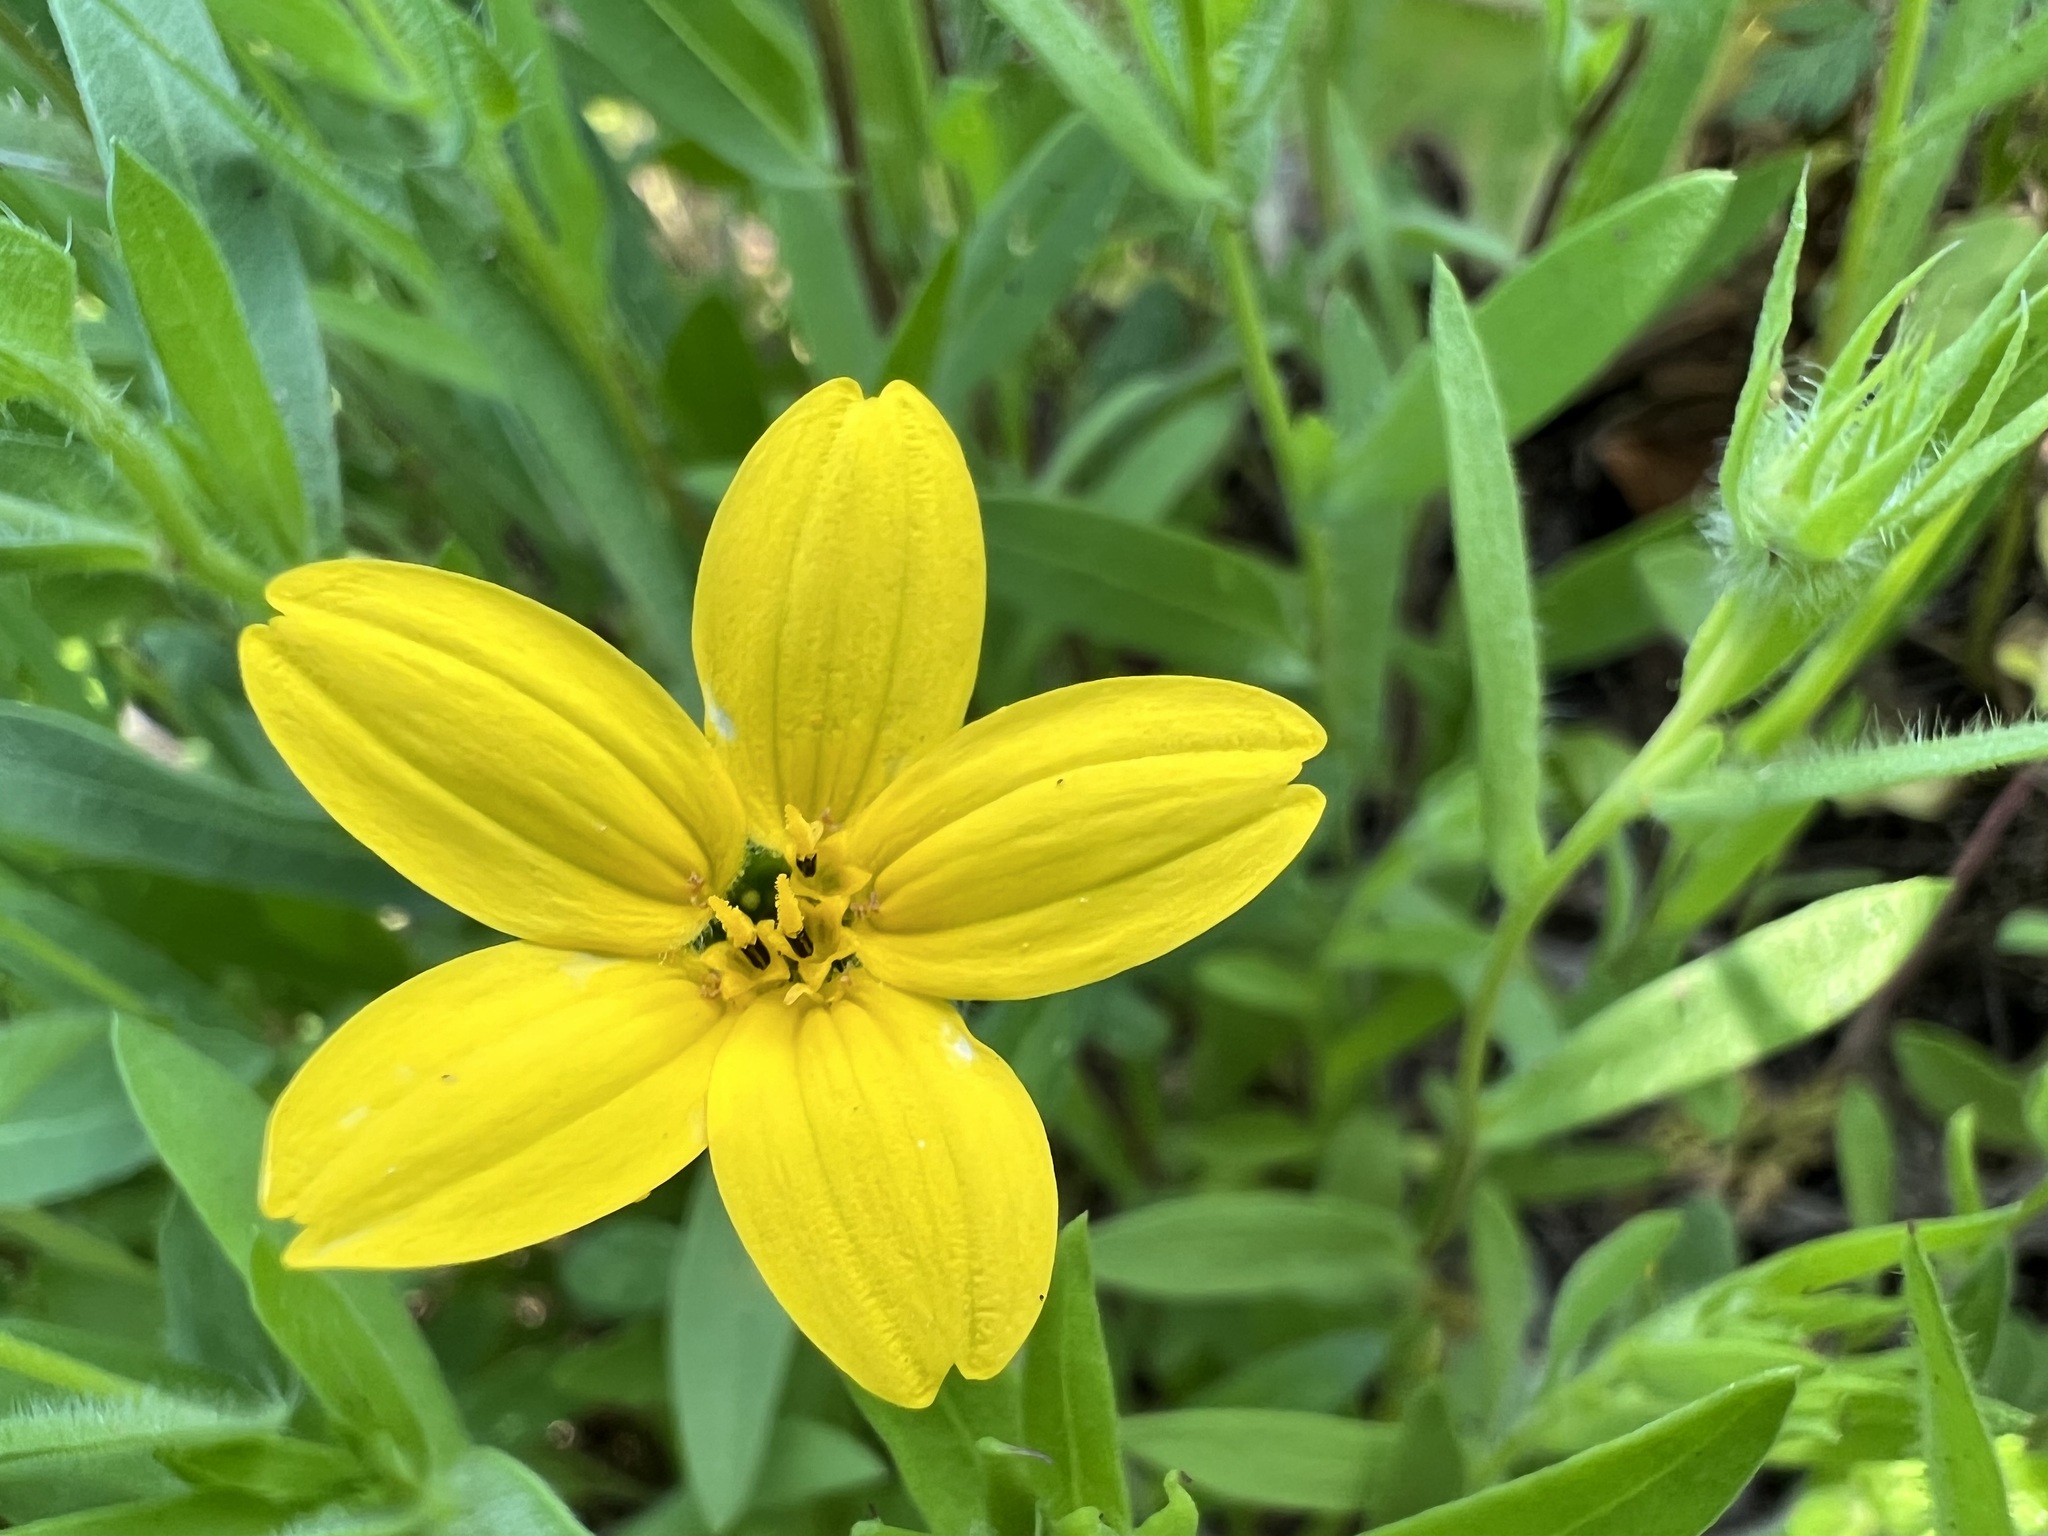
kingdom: Plantae
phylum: Tracheophyta
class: Magnoliopsida
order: Asterales
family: Asteraceae
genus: Lindheimera
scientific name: Lindheimera texana
